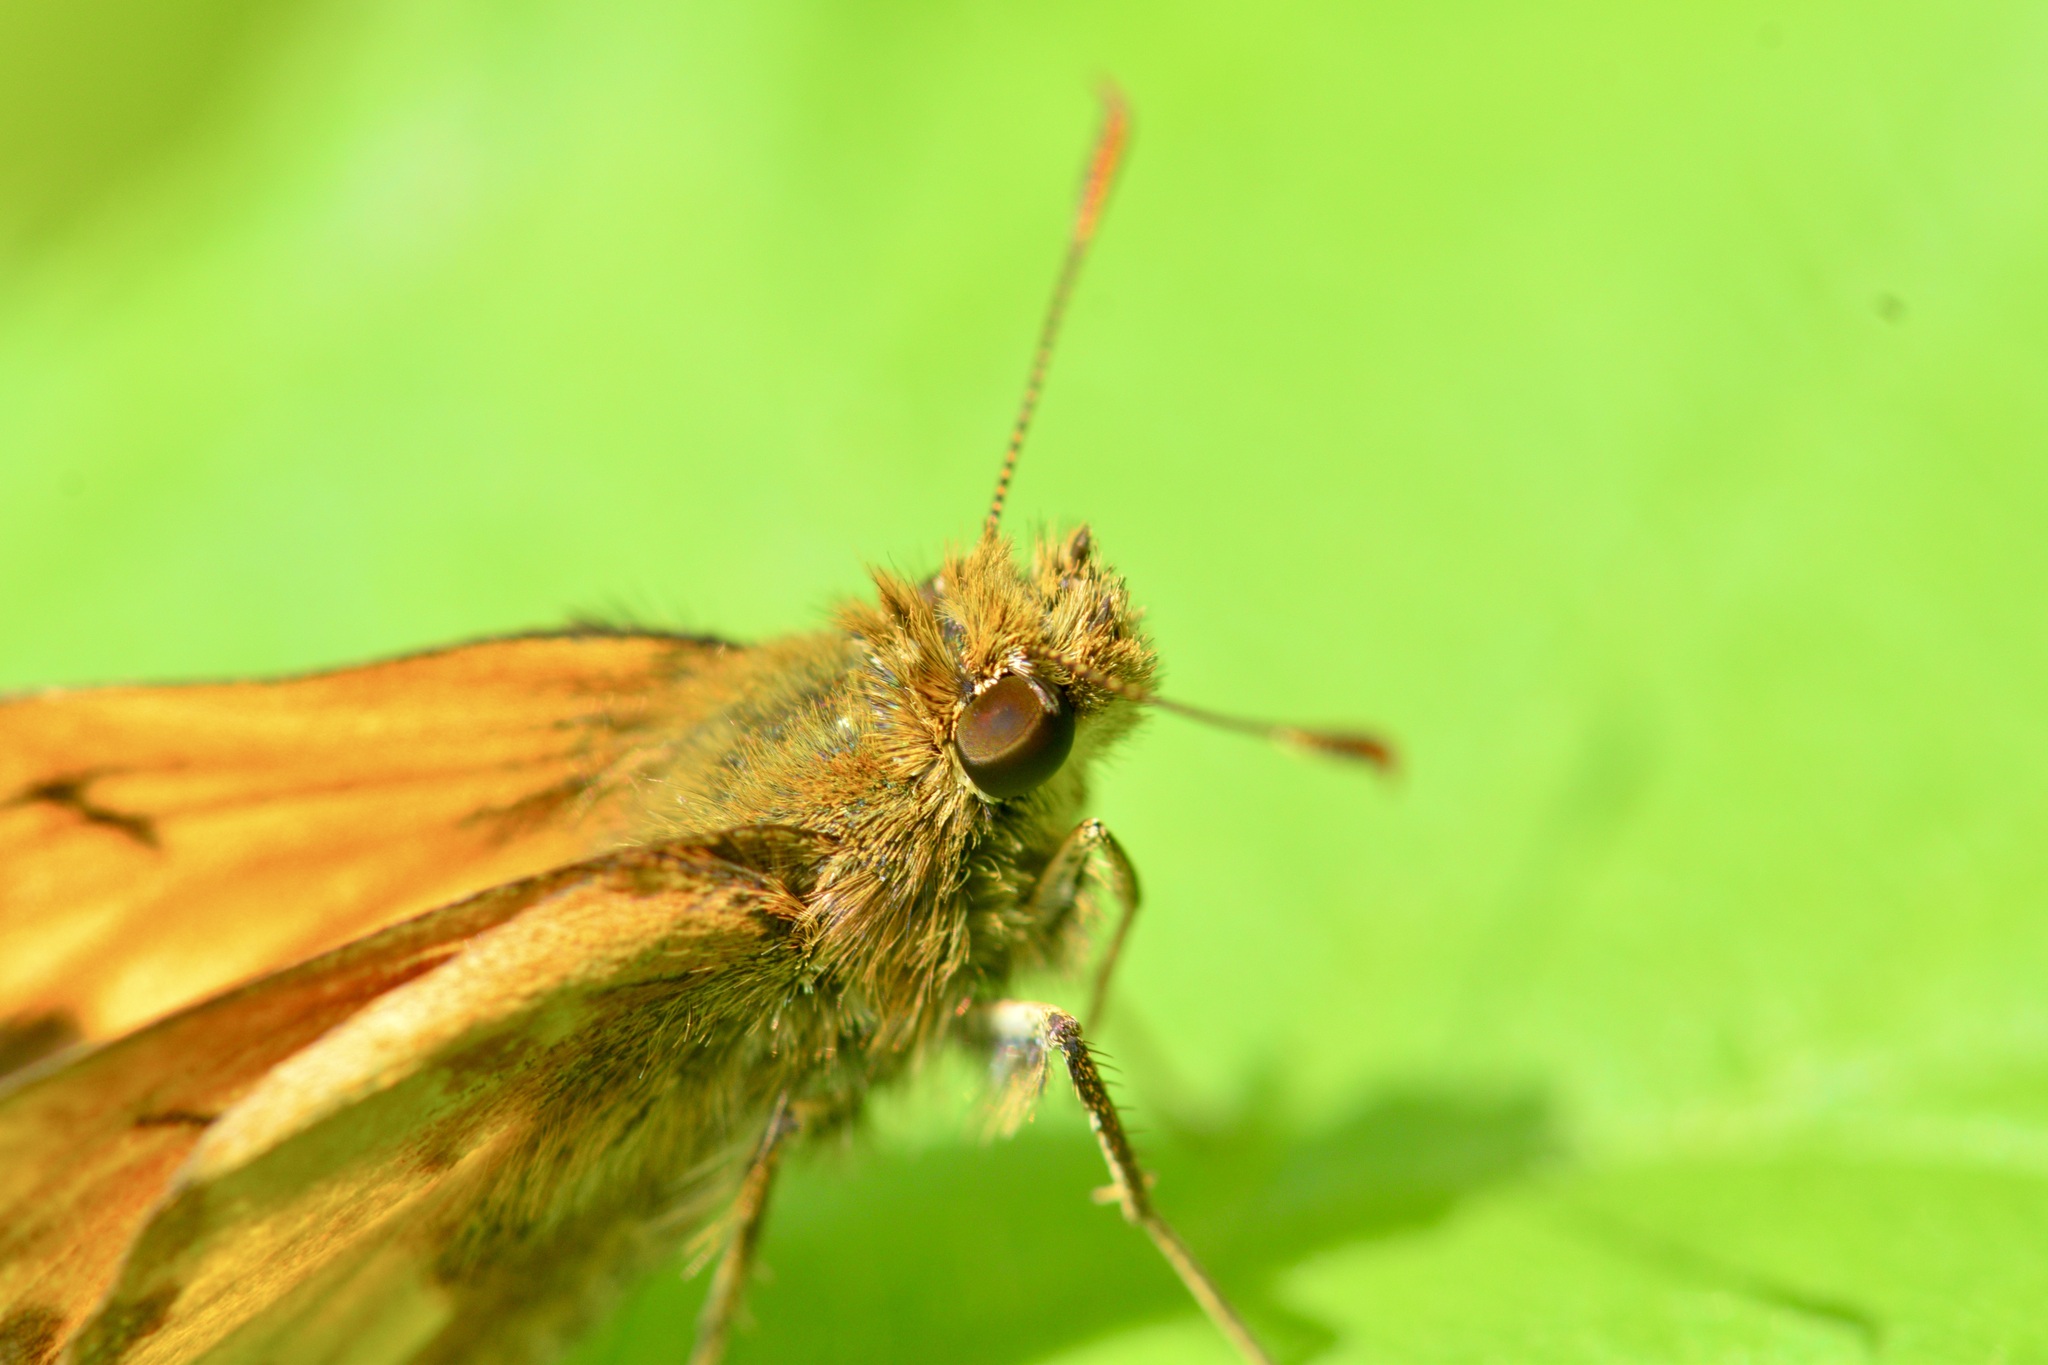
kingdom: Animalia
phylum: Arthropoda
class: Insecta
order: Lepidoptera
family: Hesperiidae
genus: Lon
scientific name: Lon hobomok
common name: Hobomok skipper
